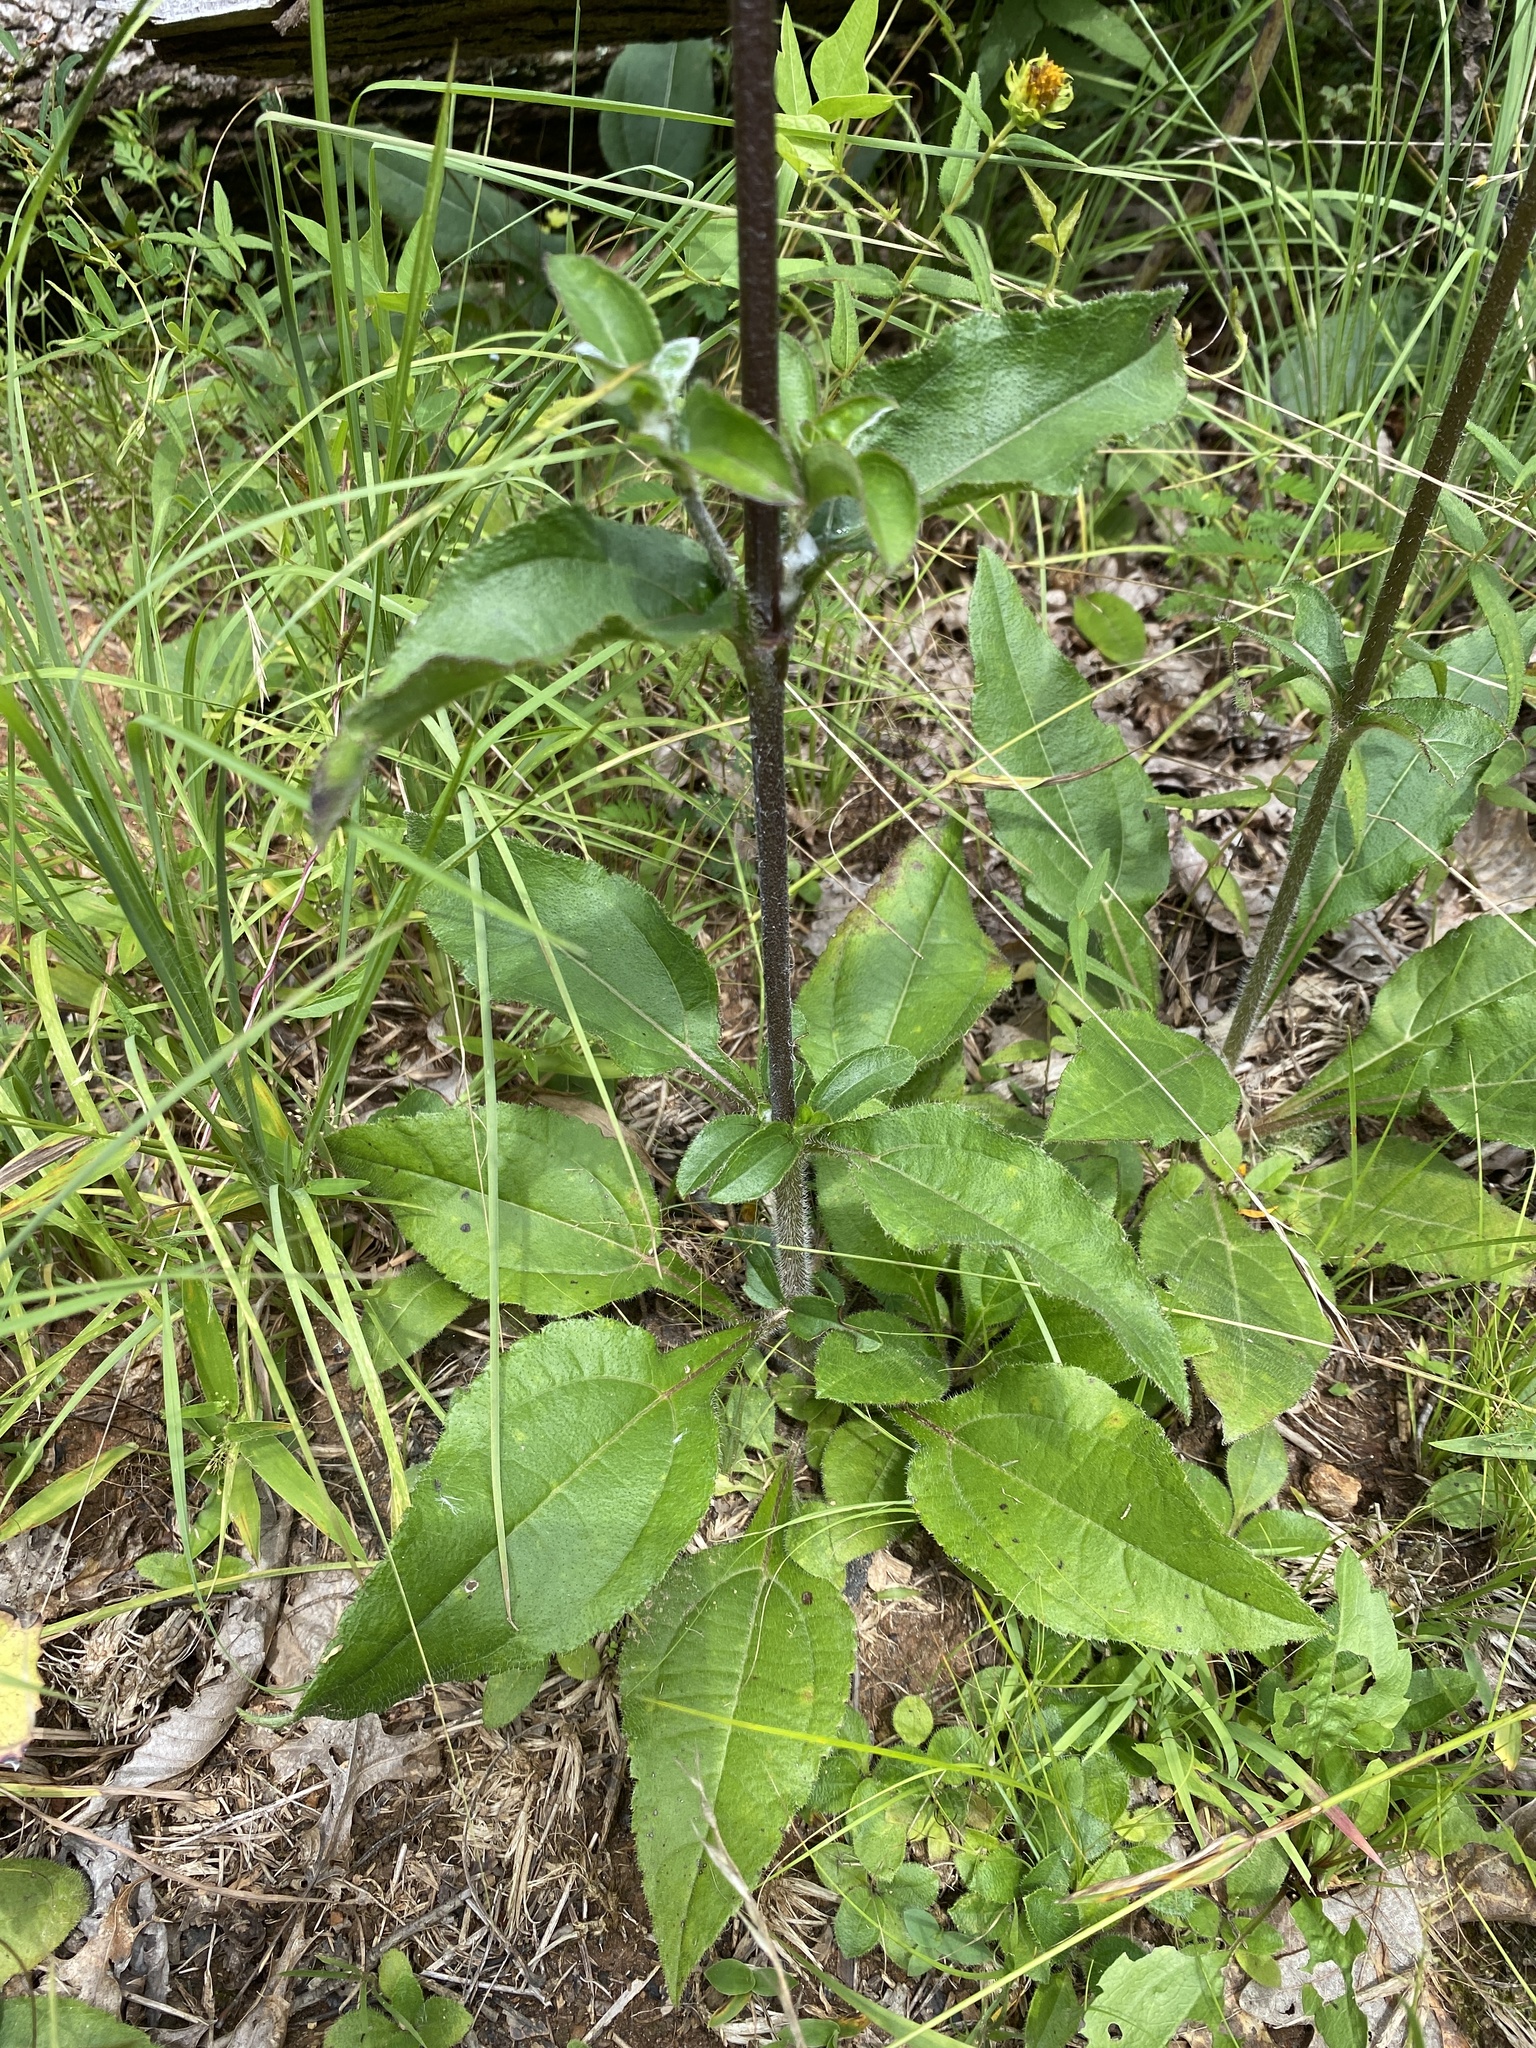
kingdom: Plantae
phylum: Tracheophyta
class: Magnoliopsida
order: Asterales
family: Asteraceae
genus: Helianthus
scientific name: Helianthus atrorubens
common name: Dark-eyed sunflower
